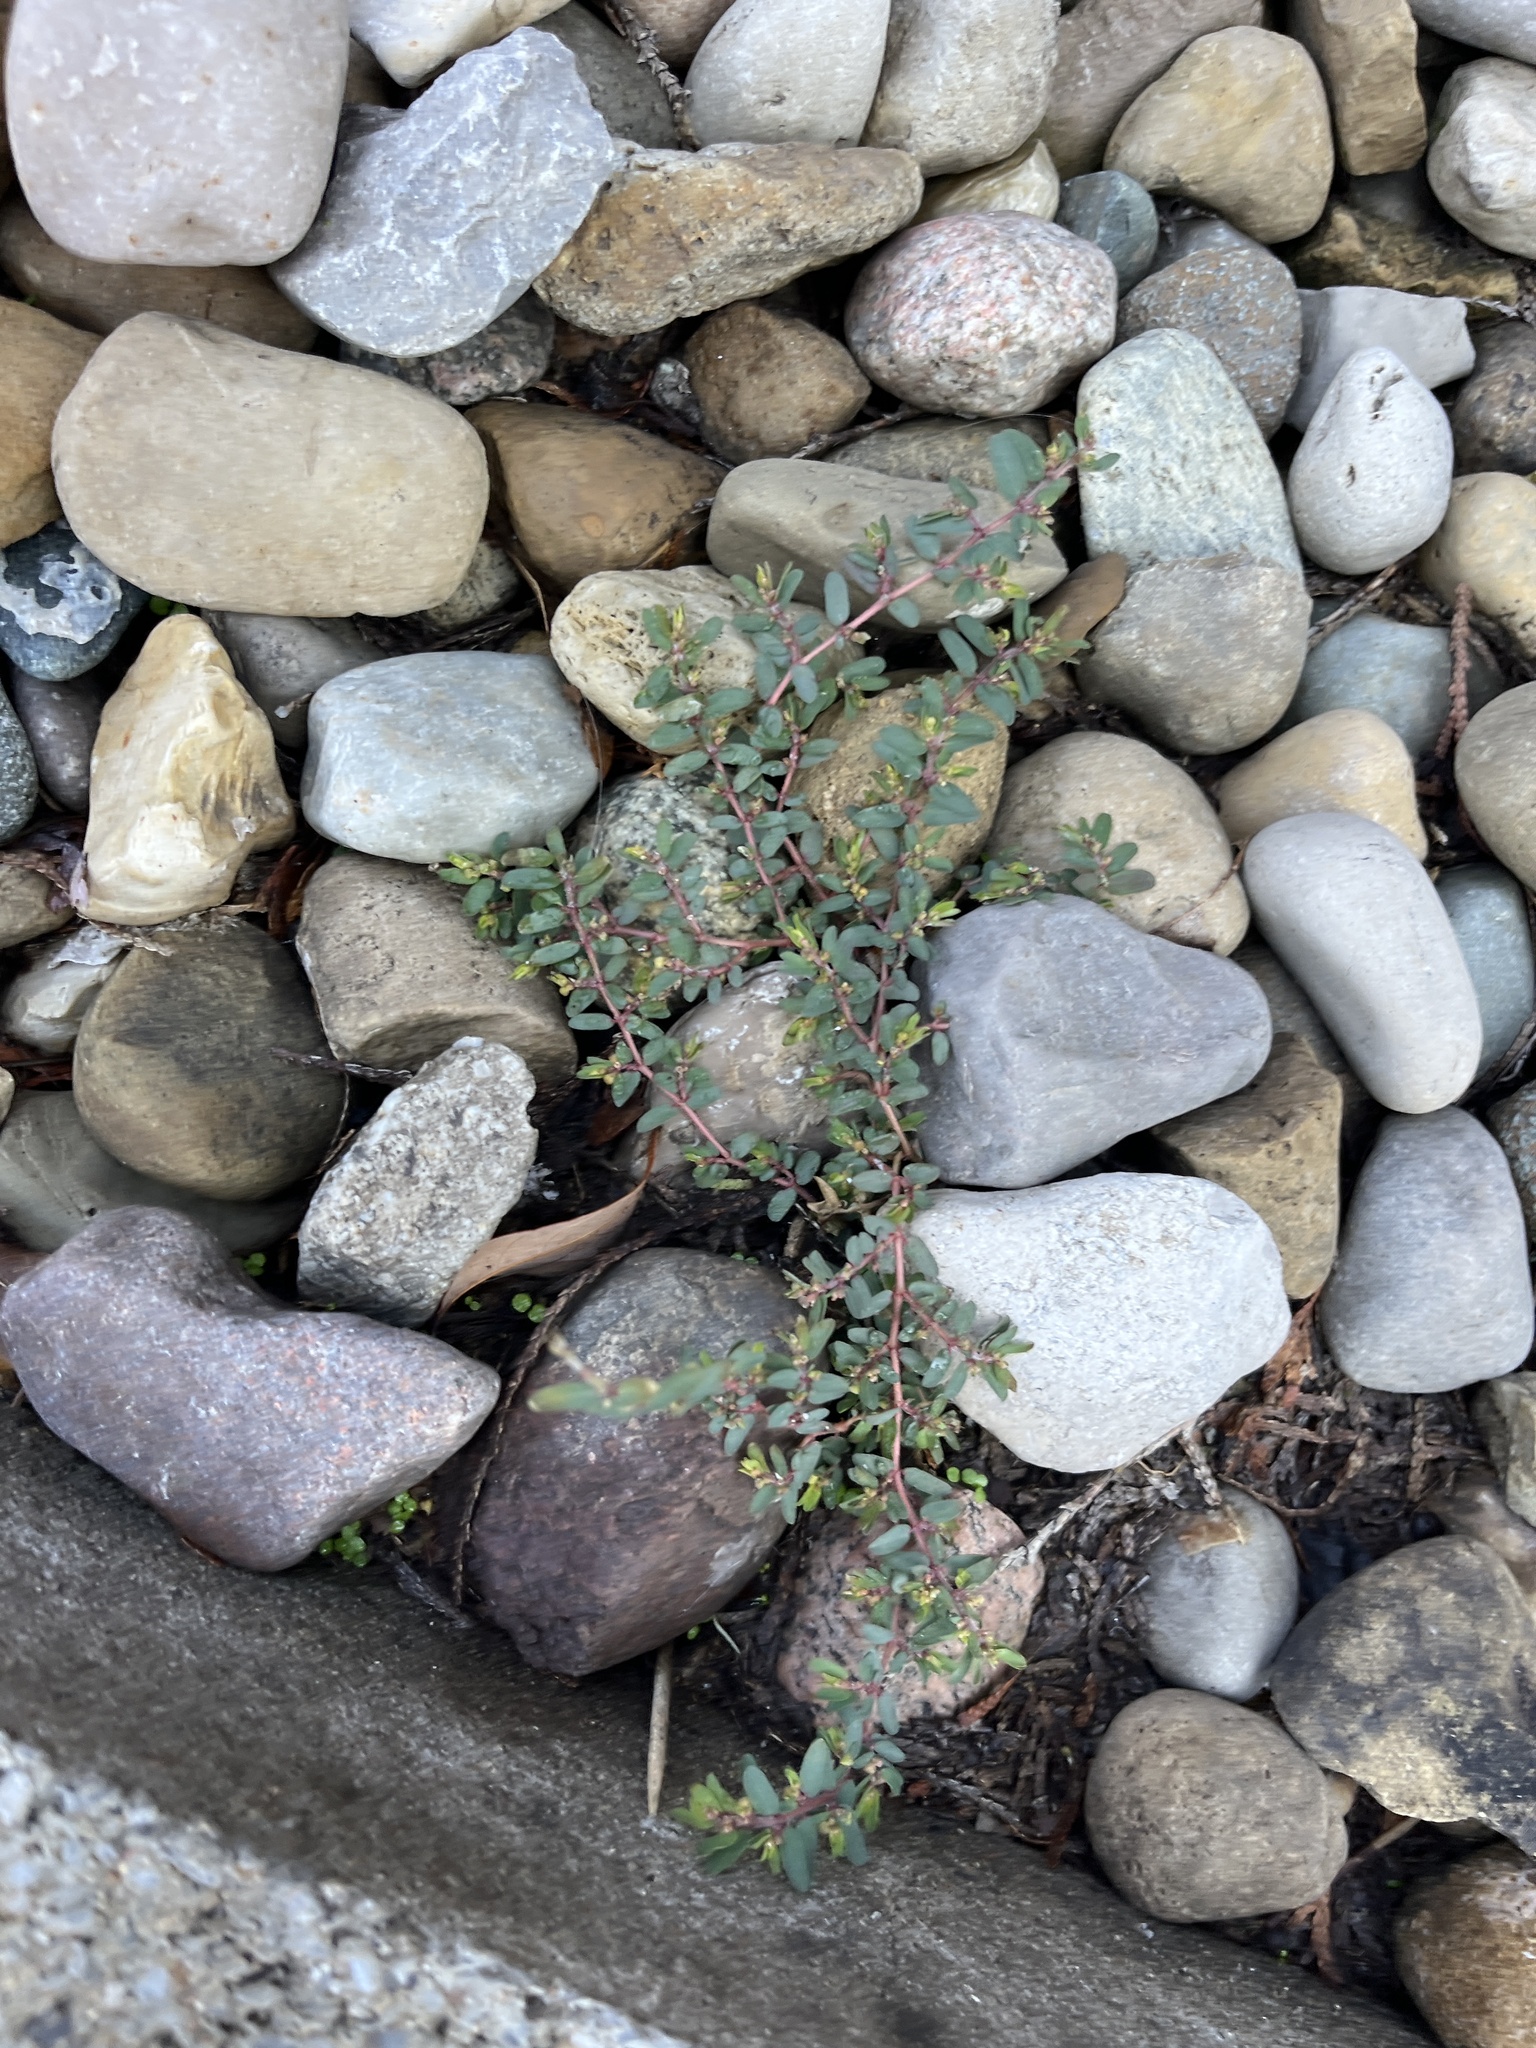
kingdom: Plantae
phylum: Tracheophyta
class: Magnoliopsida
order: Malpighiales
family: Euphorbiaceae
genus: Euphorbia
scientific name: Euphorbia maculata
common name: Spotted spurge
